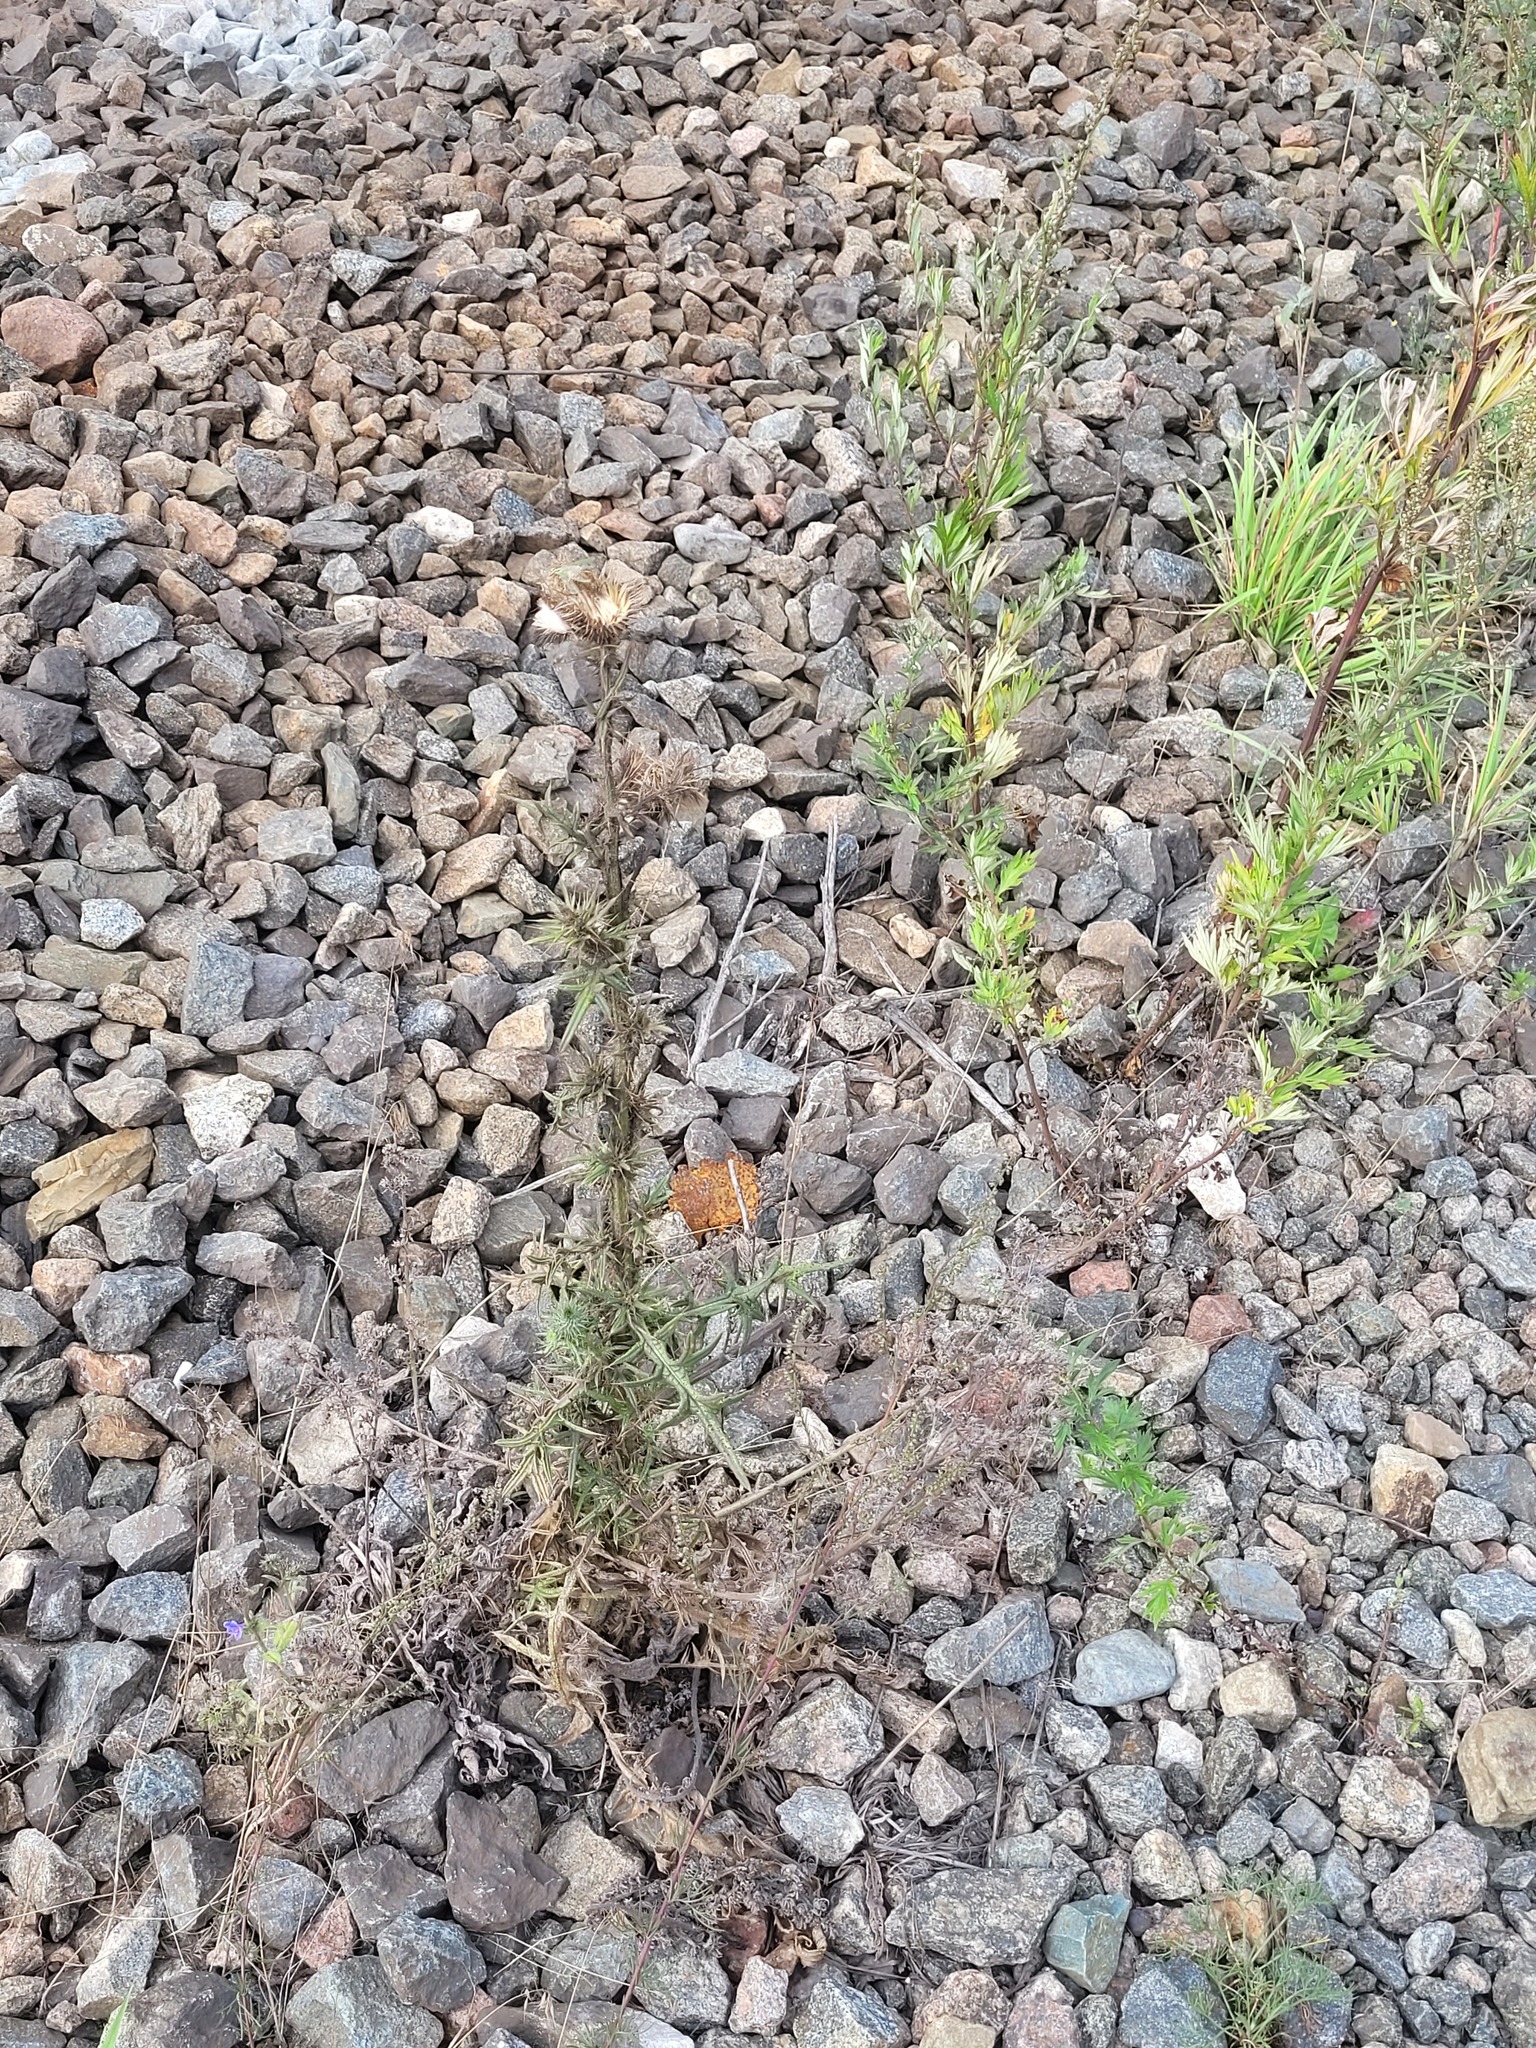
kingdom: Plantae
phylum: Tracheophyta
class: Magnoliopsida
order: Asterales
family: Asteraceae
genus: Cirsium
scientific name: Cirsium vulgare
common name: Bull thistle
